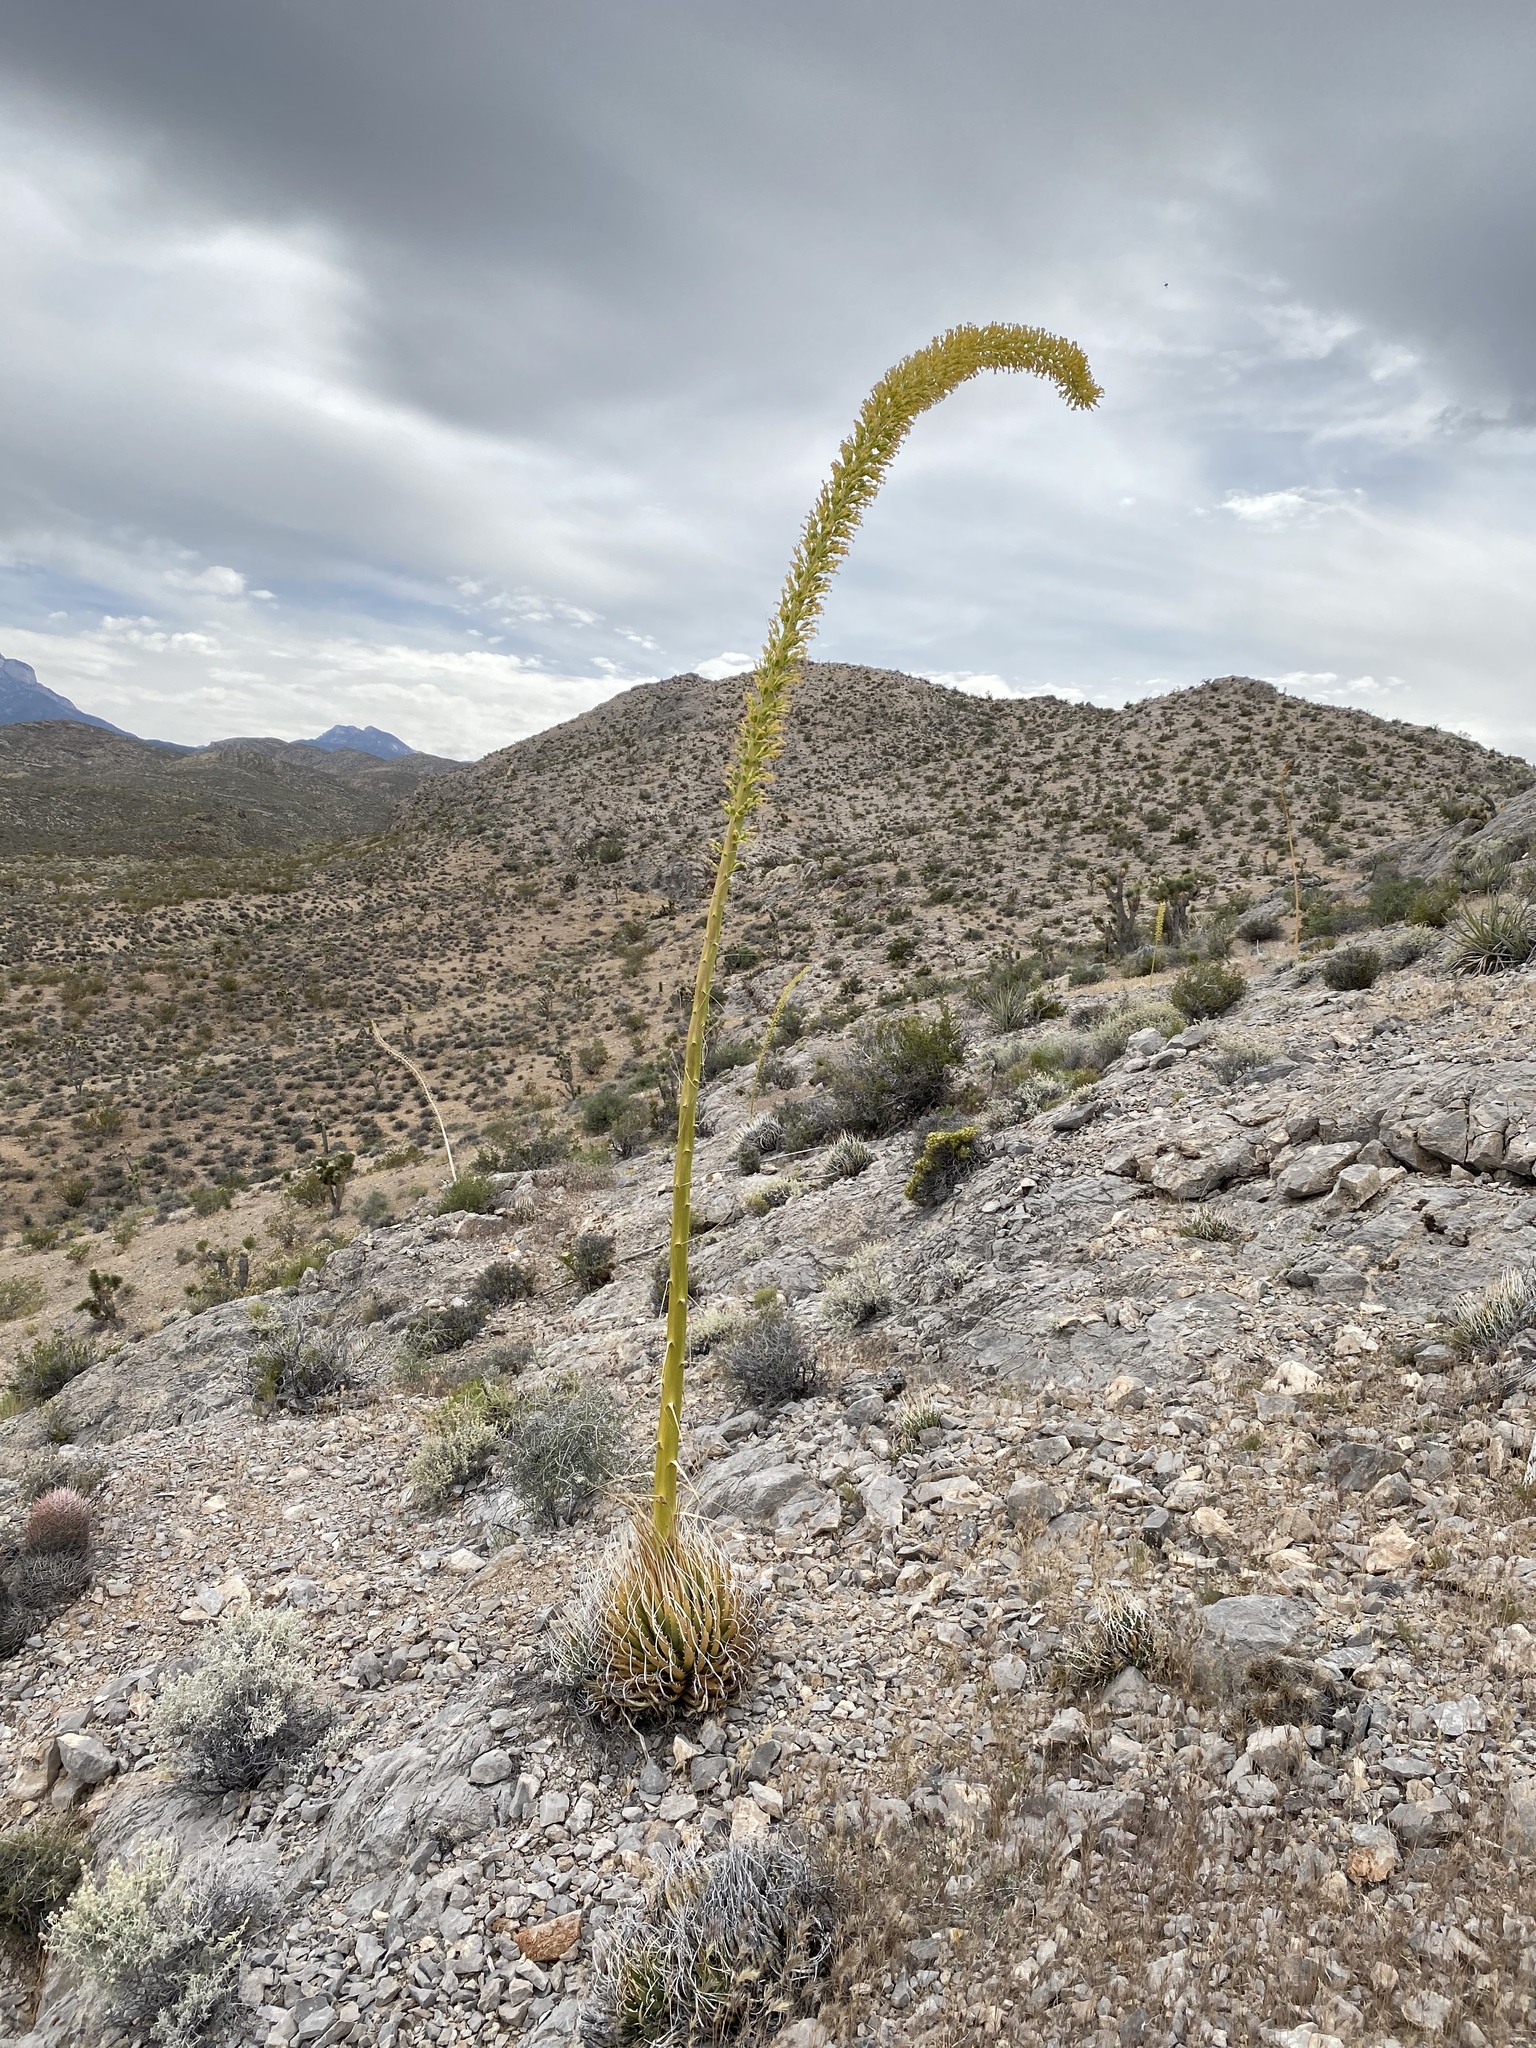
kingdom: Plantae
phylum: Tracheophyta
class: Liliopsida
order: Asparagales
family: Asparagaceae
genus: Agave
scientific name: Agave utahensis
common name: Utah agave
